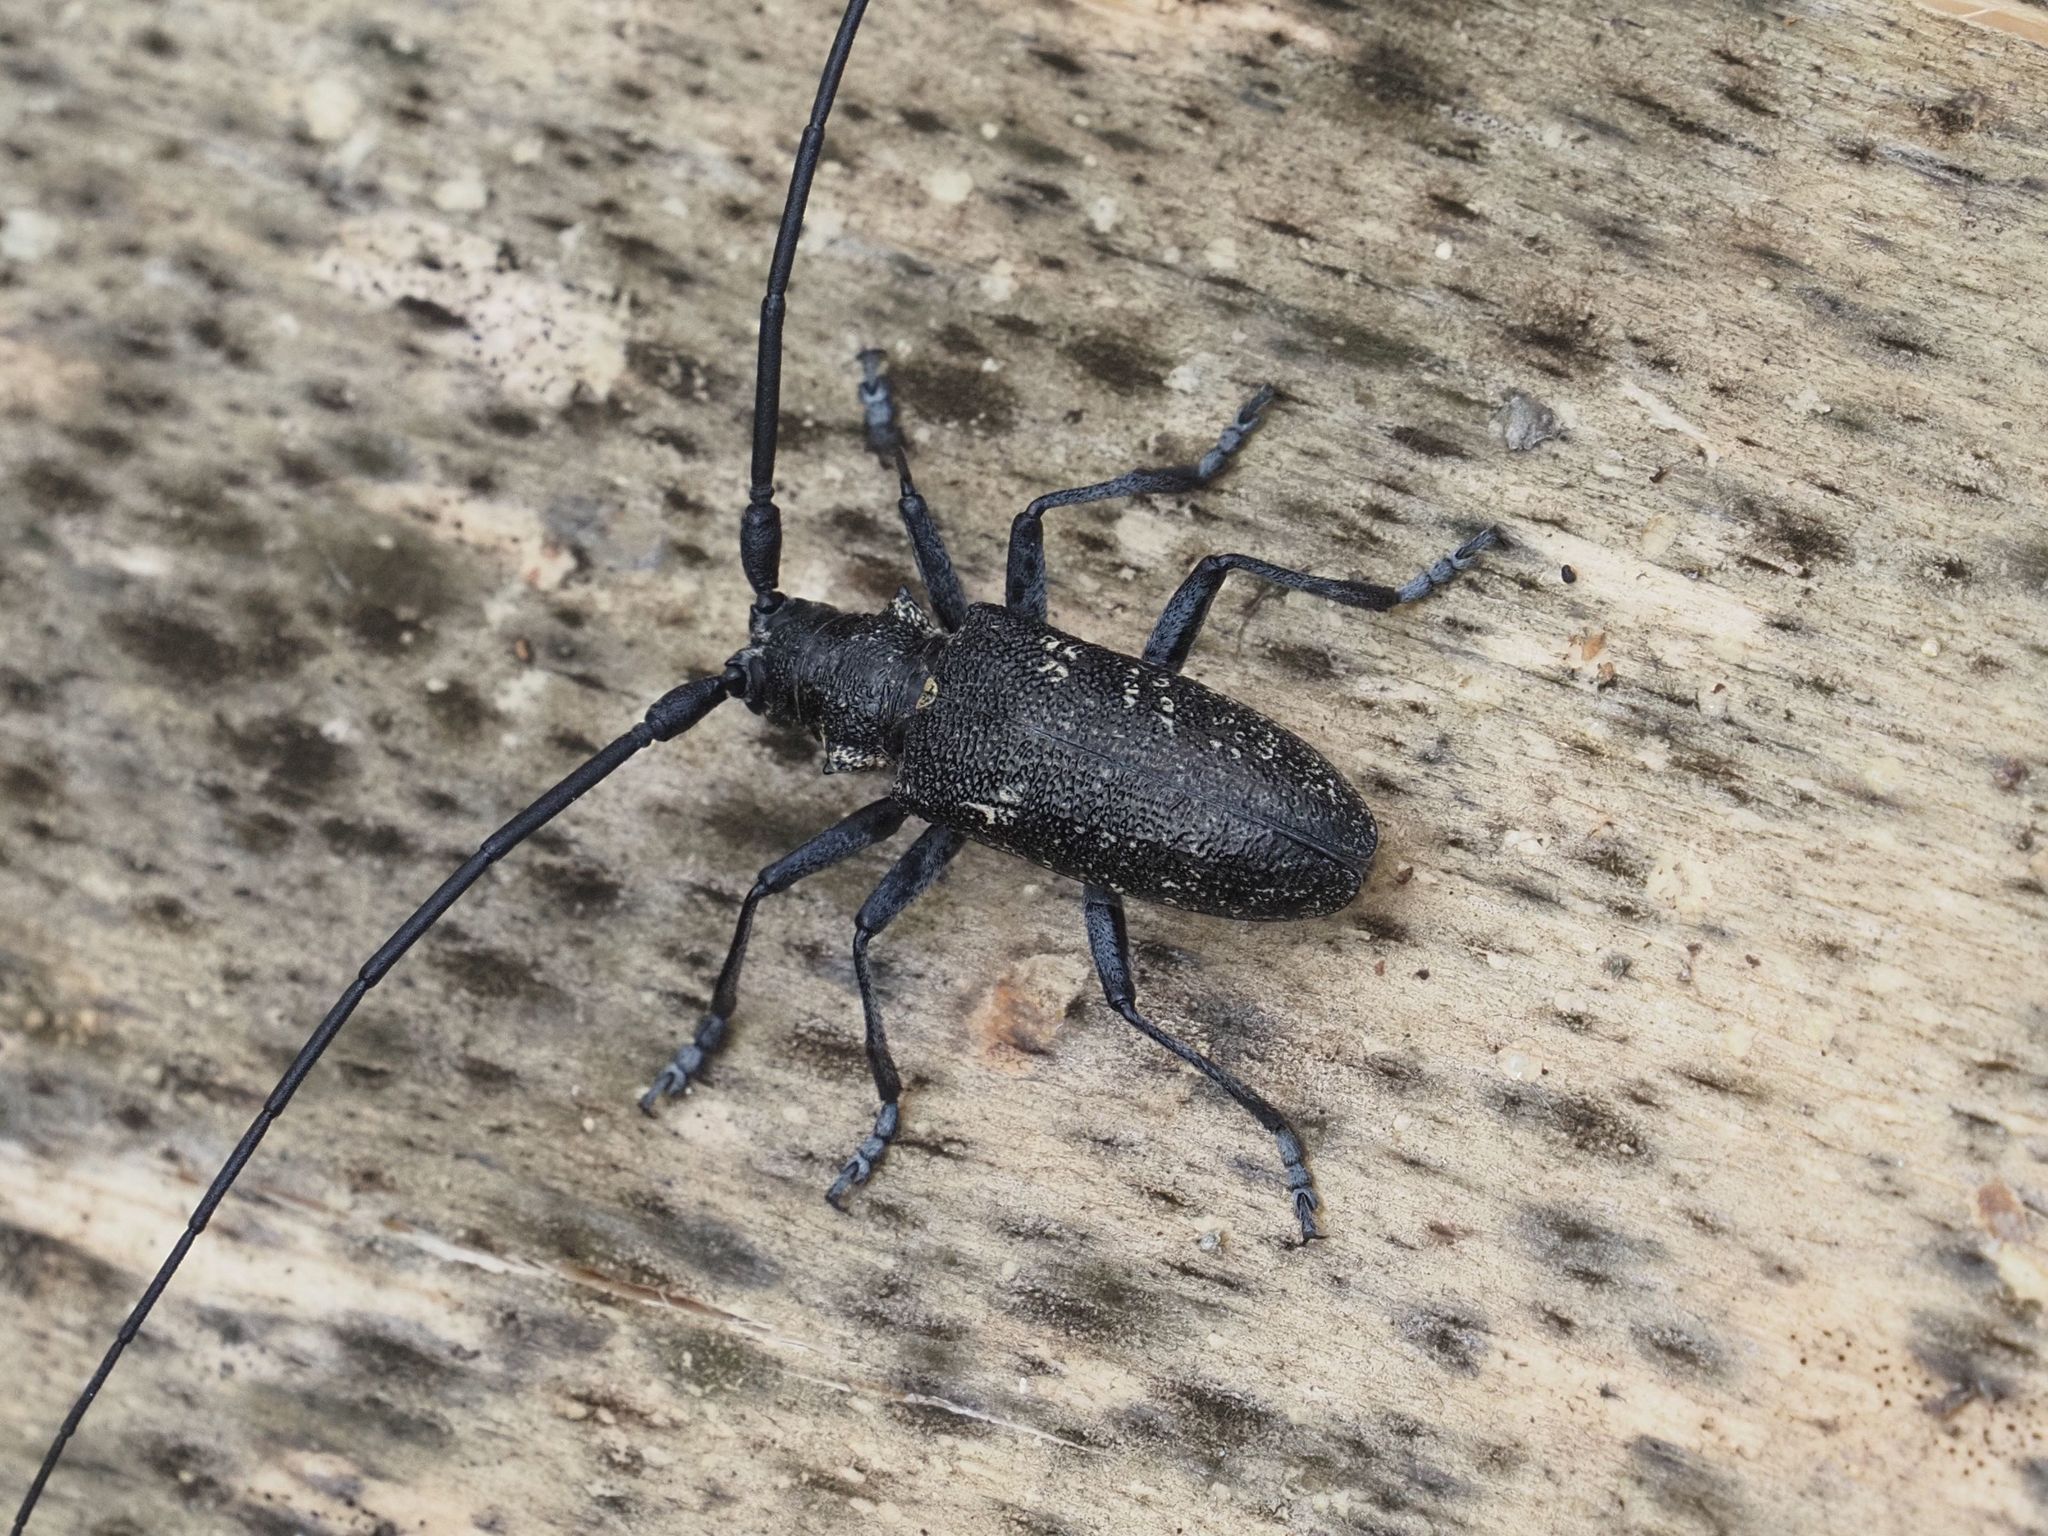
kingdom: Animalia
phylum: Arthropoda
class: Insecta
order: Coleoptera
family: Cerambycidae
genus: Monochamus
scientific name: Monochamus sutor
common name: Pine sawyer
